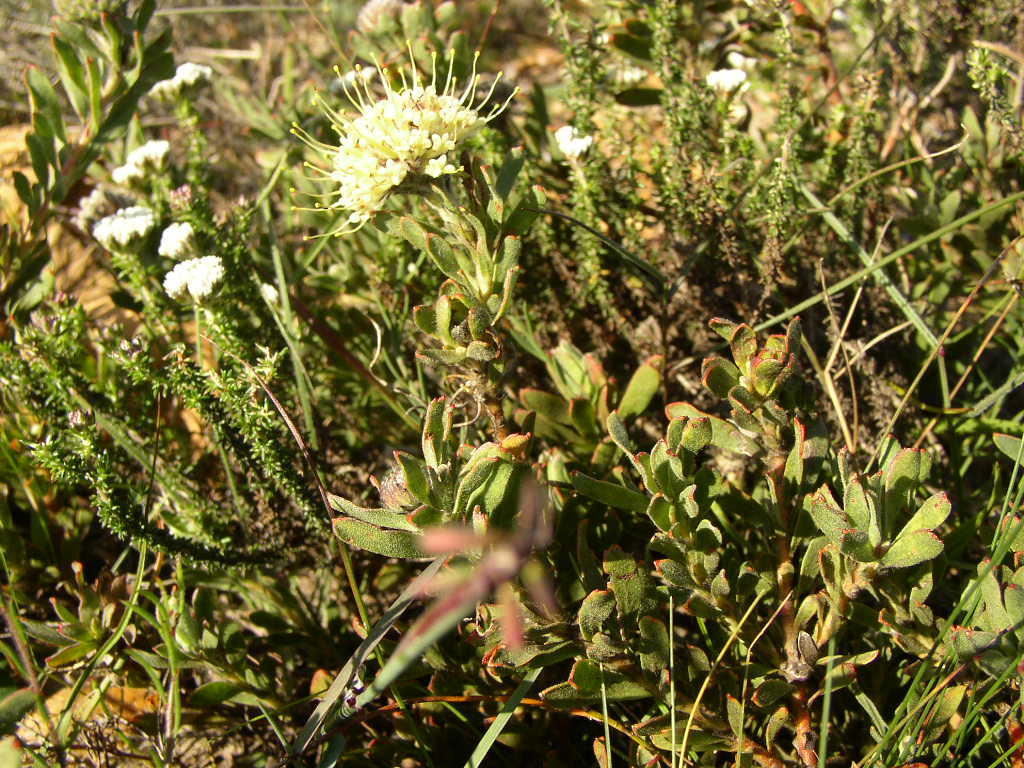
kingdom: Plantae
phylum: Tracheophyta
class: Magnoliopsida
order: Proteales
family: Proteaceae
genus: Leucospermum
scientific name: Leucospermum heterophyllum
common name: Trident pincushion
